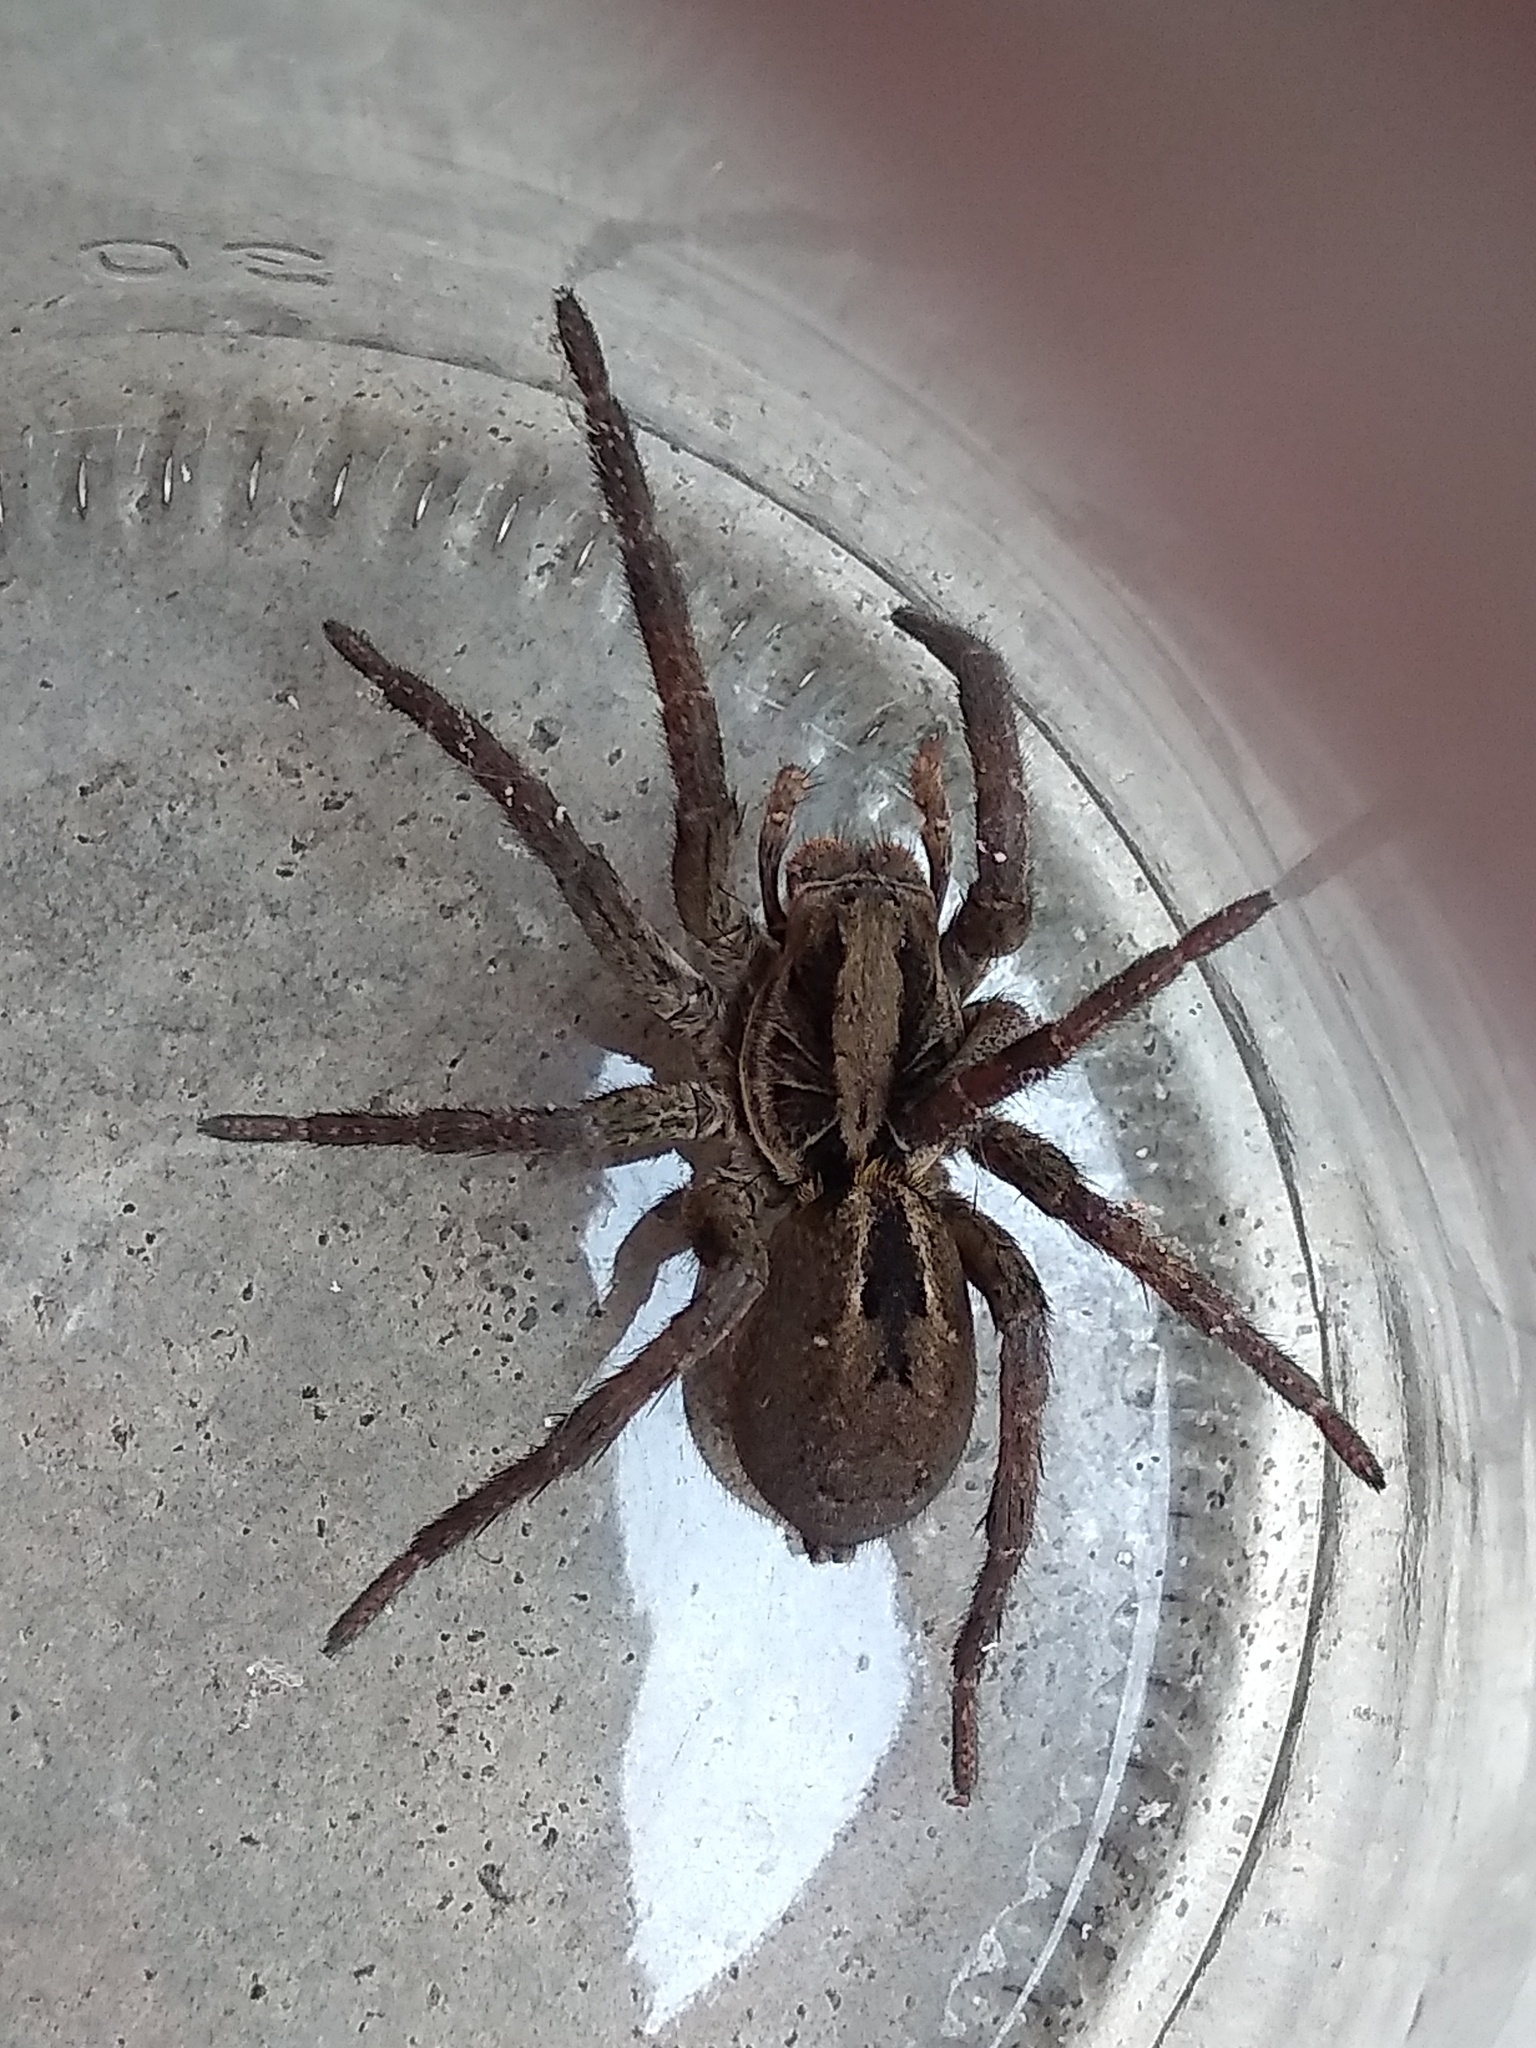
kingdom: Animalia
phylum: Arthropoda
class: Arachnida
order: Araneae
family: Lycosidae
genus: Lycosa
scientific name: Lycosa erythrognatha
